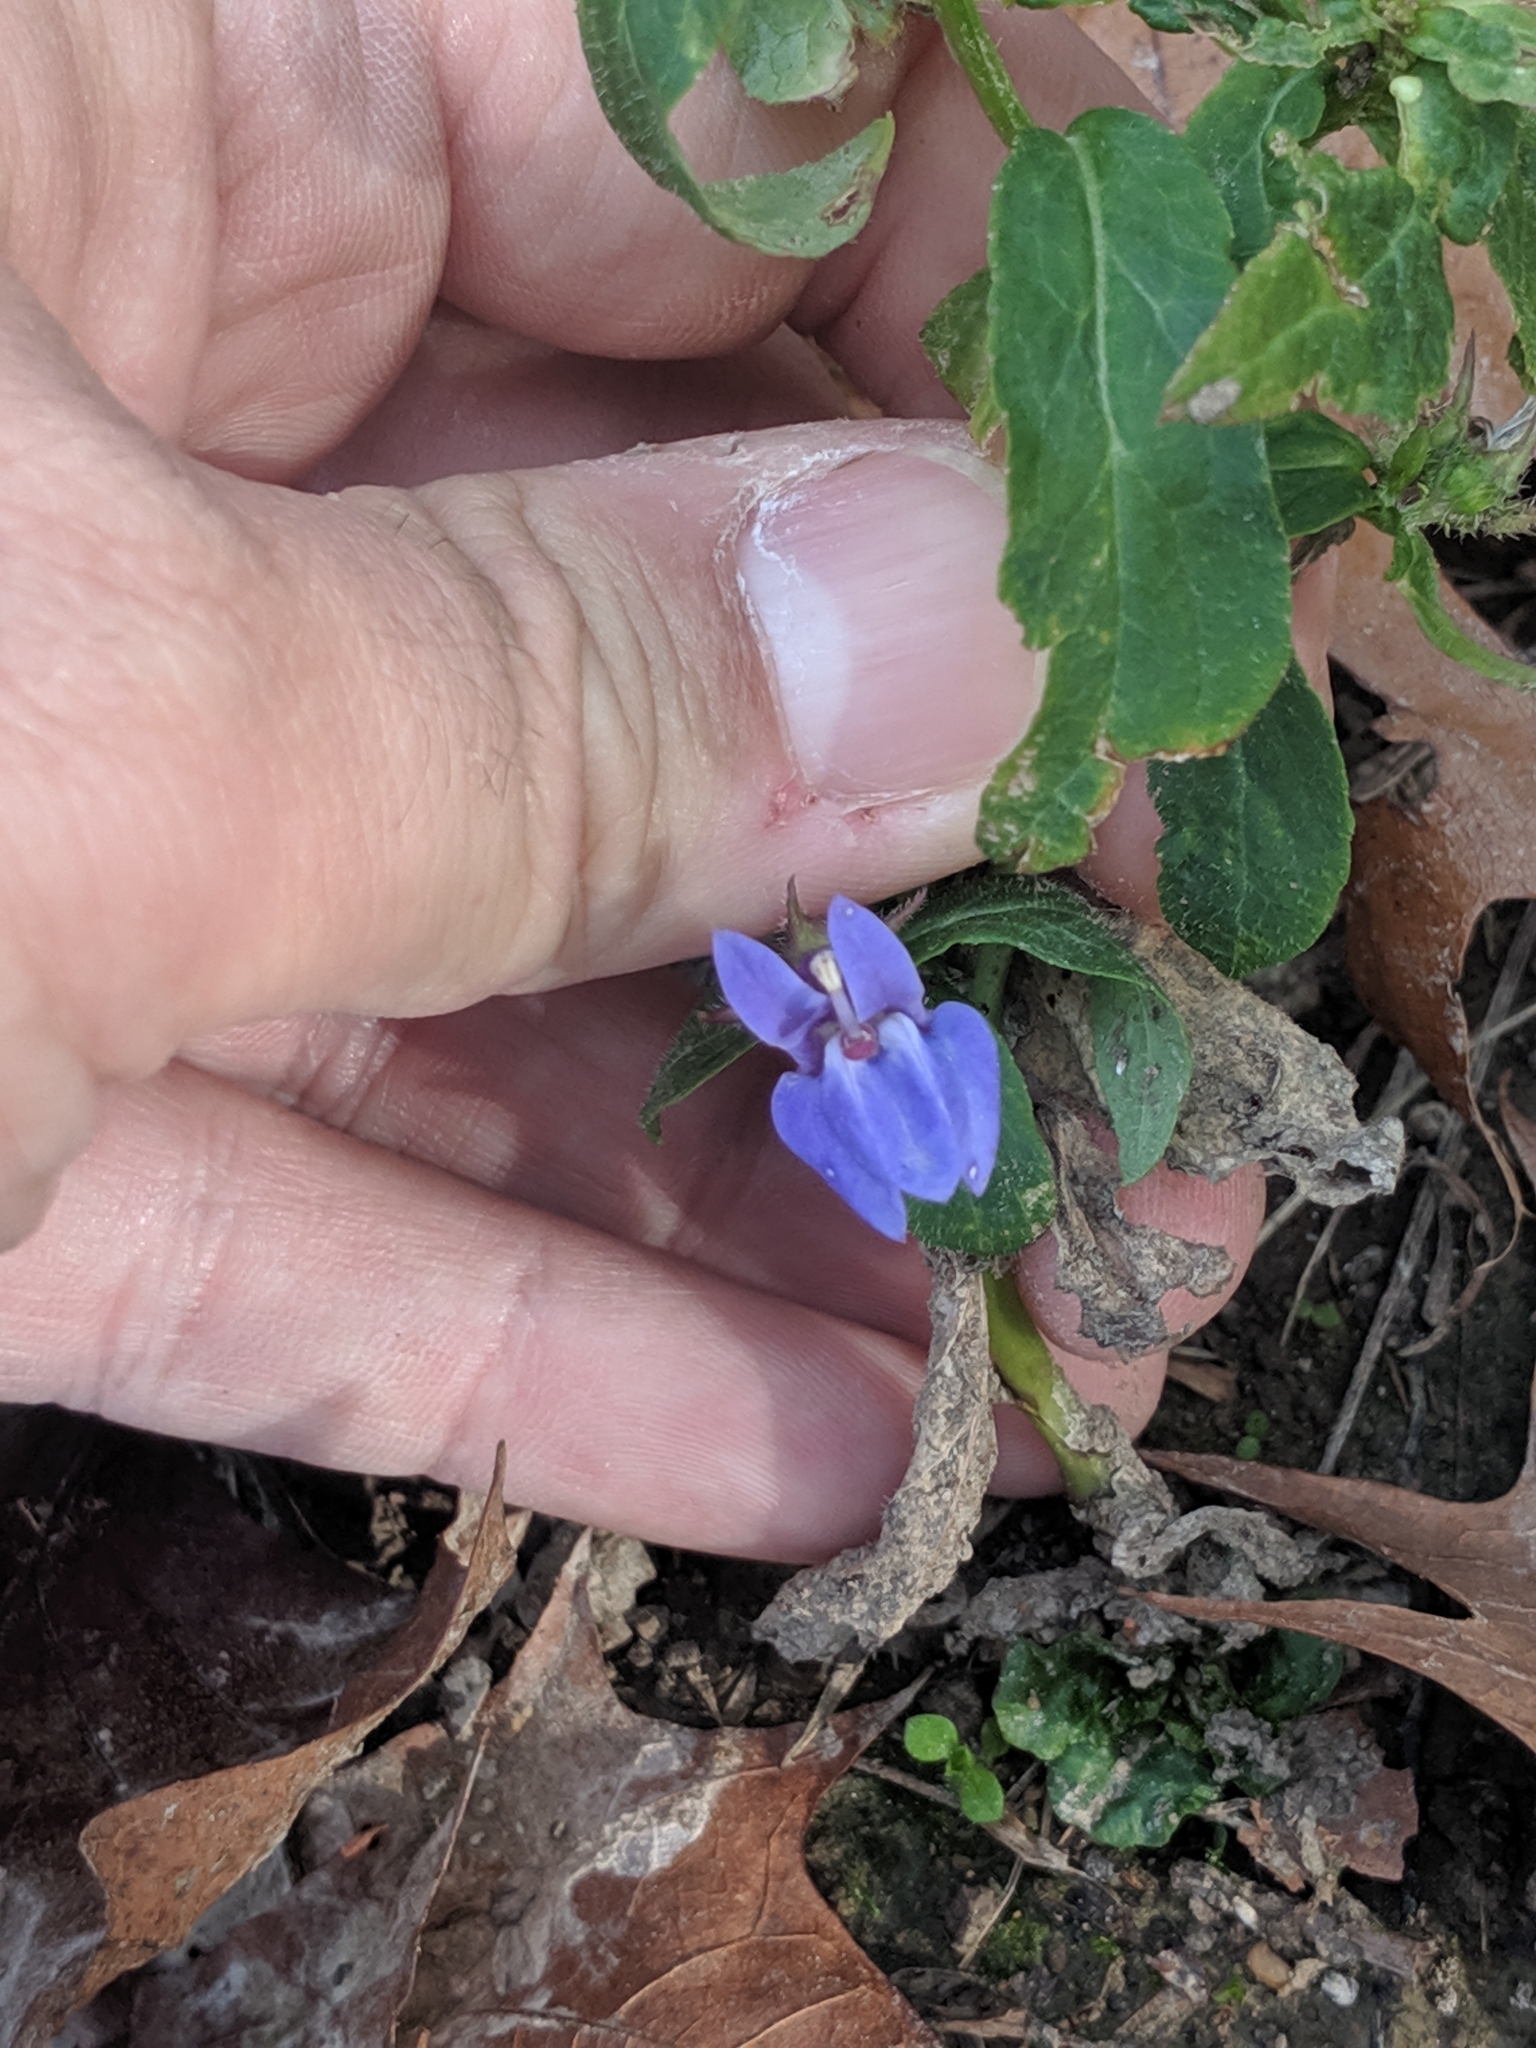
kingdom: Plantae
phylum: Tracheophyta
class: Magnoliopsida
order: Asterales
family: Campanulaceae
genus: Lobelia
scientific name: Lobelia siphilitica
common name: Great lobelia
